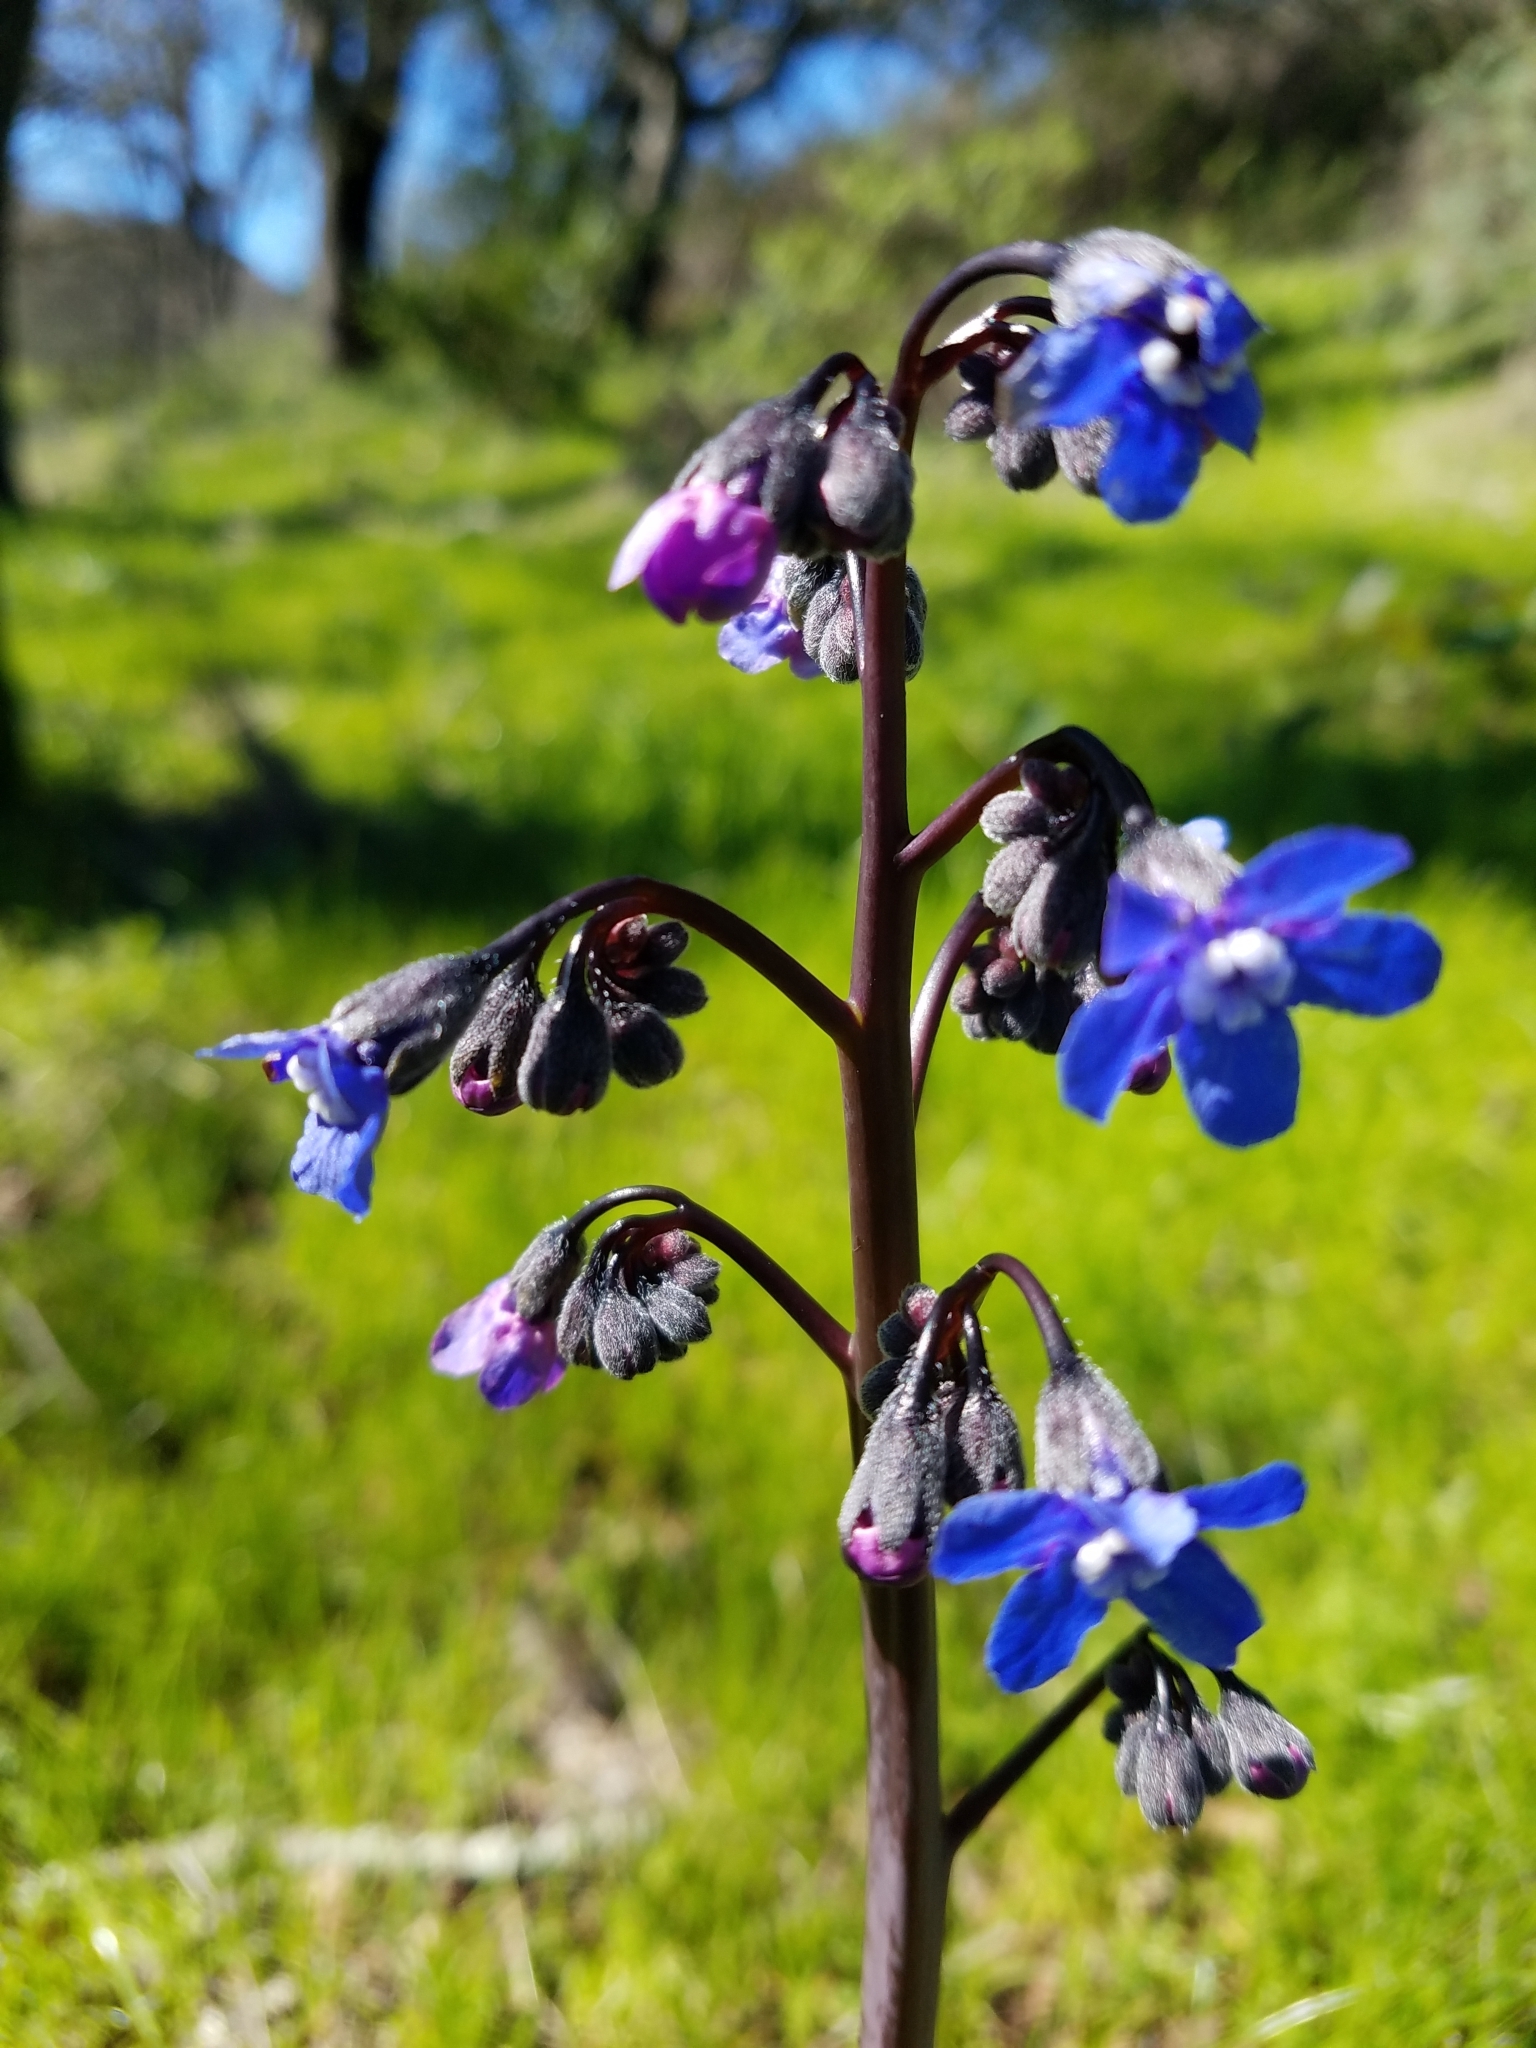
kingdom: Plantae
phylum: Tracheophyta
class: Magnoliopsida
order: Boraginales
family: Boraginaceae
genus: Adelinia
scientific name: Adelinia grande
